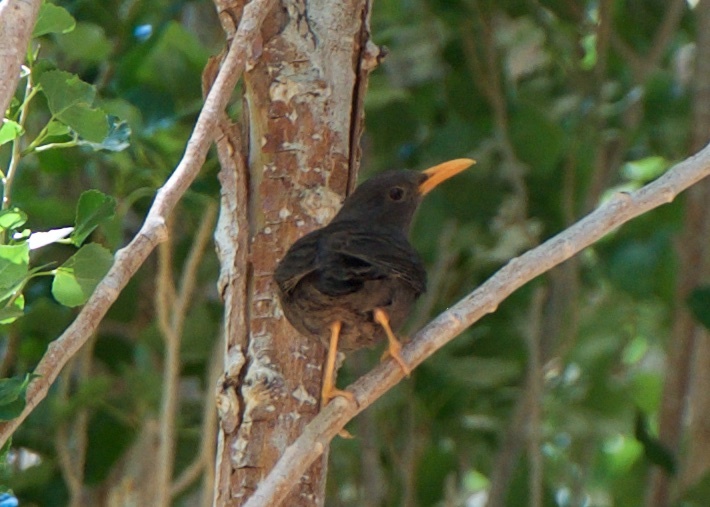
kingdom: Animalia
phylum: Chordata
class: Aves
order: Passeriformes
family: Turdidae
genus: Turdus
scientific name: Turdus chiguanco
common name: Chiguanco thrush
